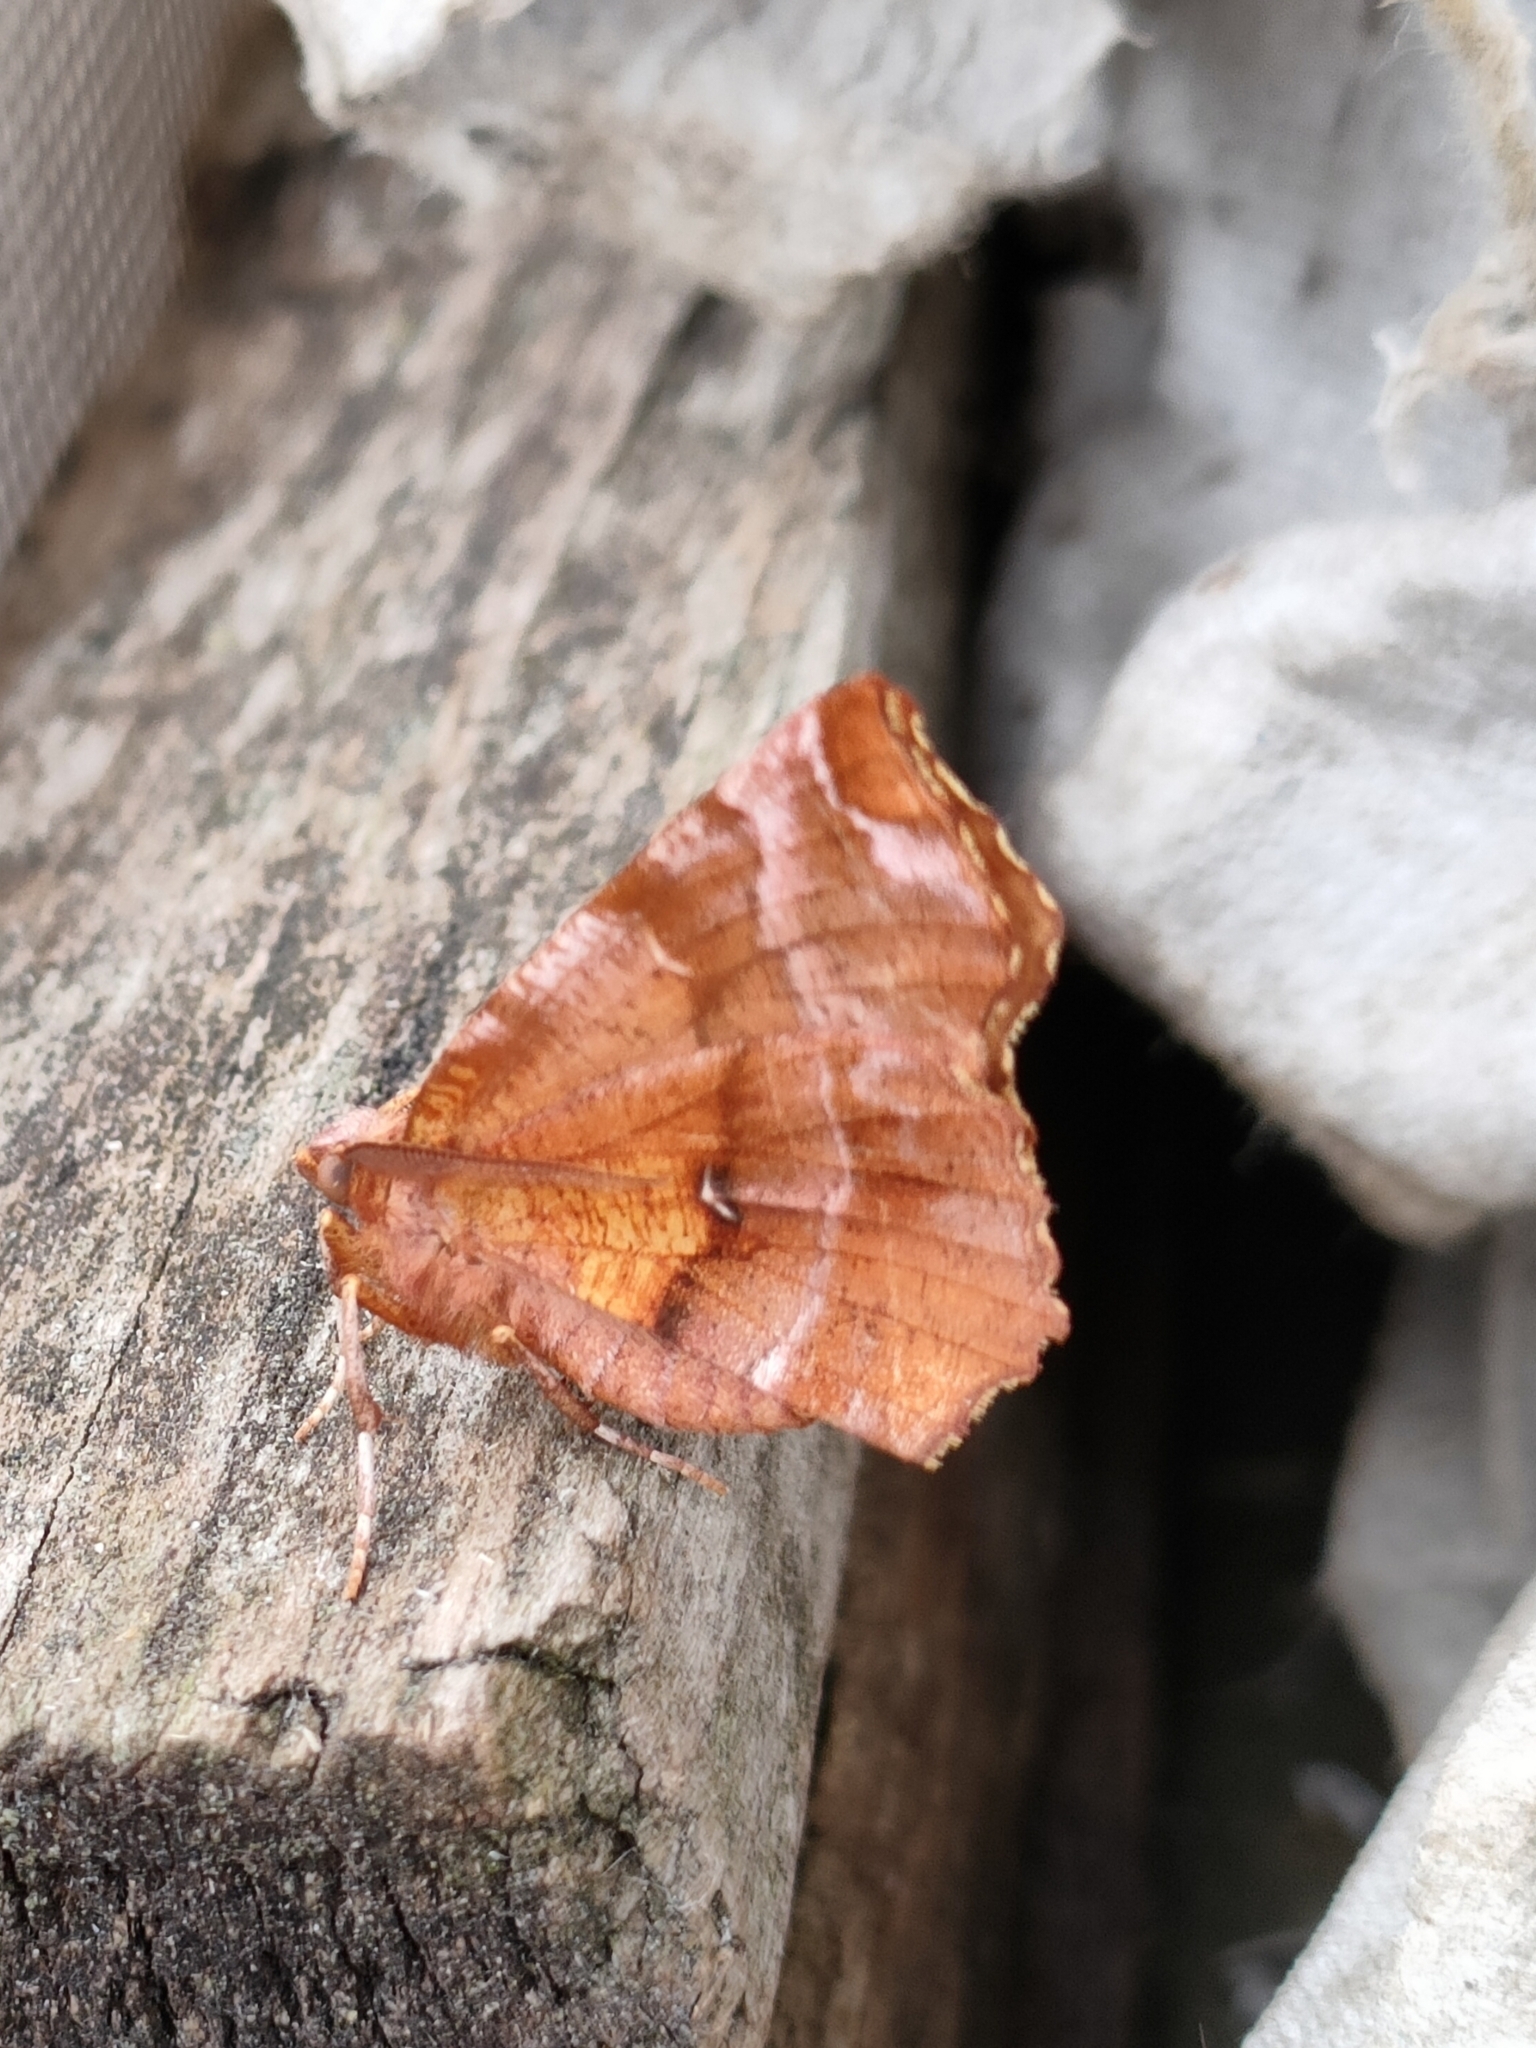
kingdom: Animalia
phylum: Arthropoda
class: Insecta
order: Lepidoptera
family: Geometridae
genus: Selenia
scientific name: Selenia dentaria
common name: Early thorn
